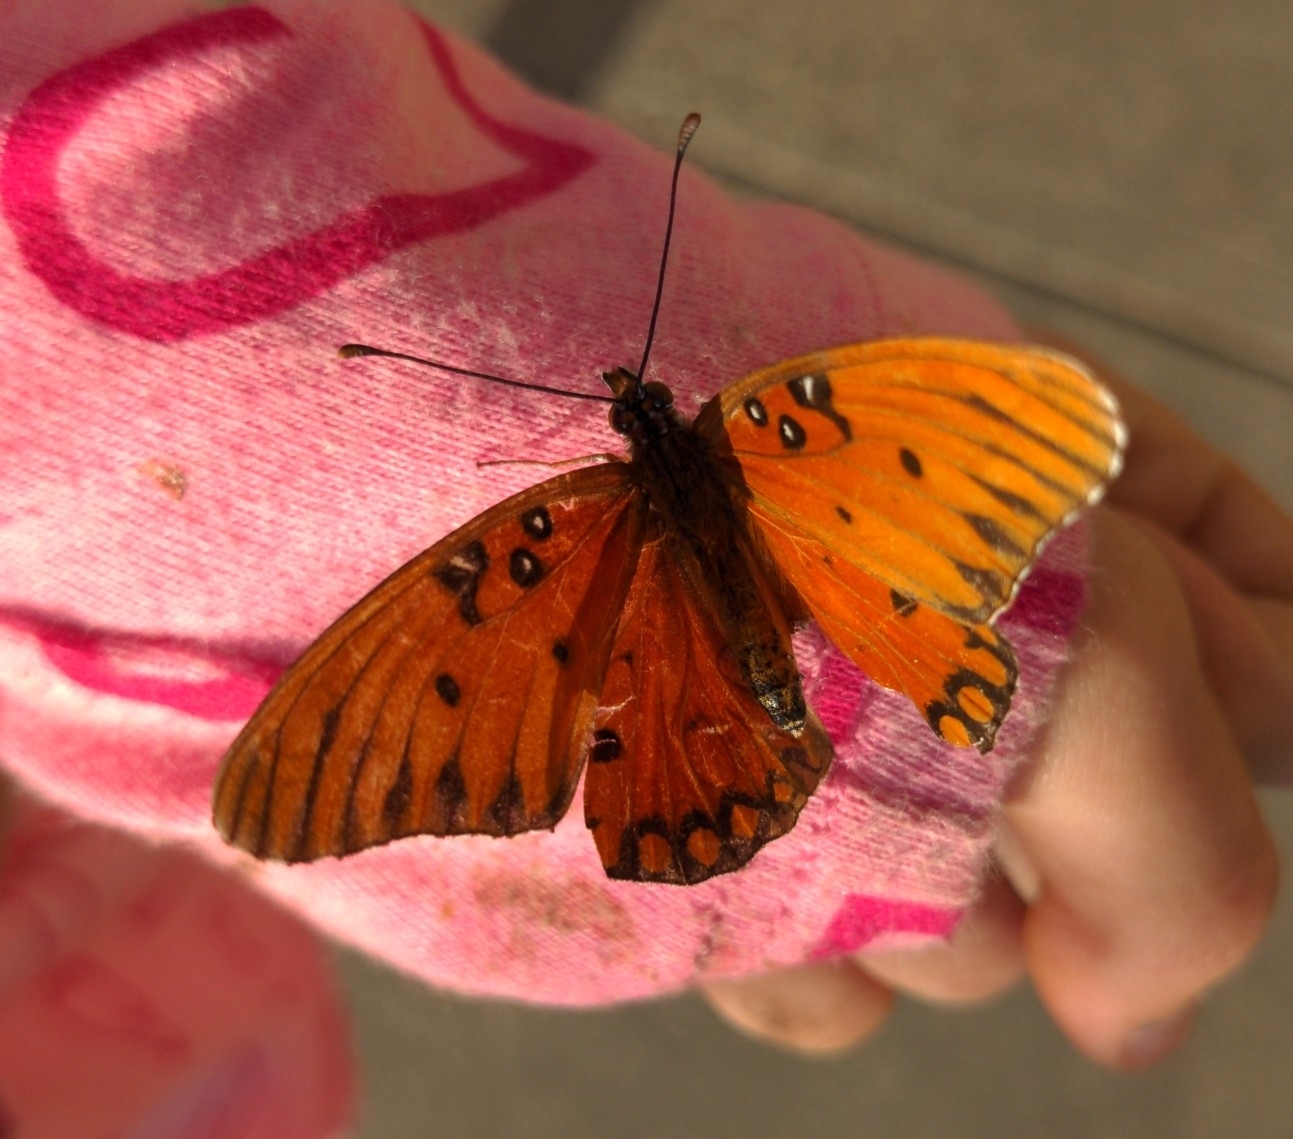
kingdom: Animalia
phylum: Arthropoda
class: Insecta
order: Lepidoptera
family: Nymphalidae
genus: Dione
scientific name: Dione vanillae
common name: Gulf fritillary
